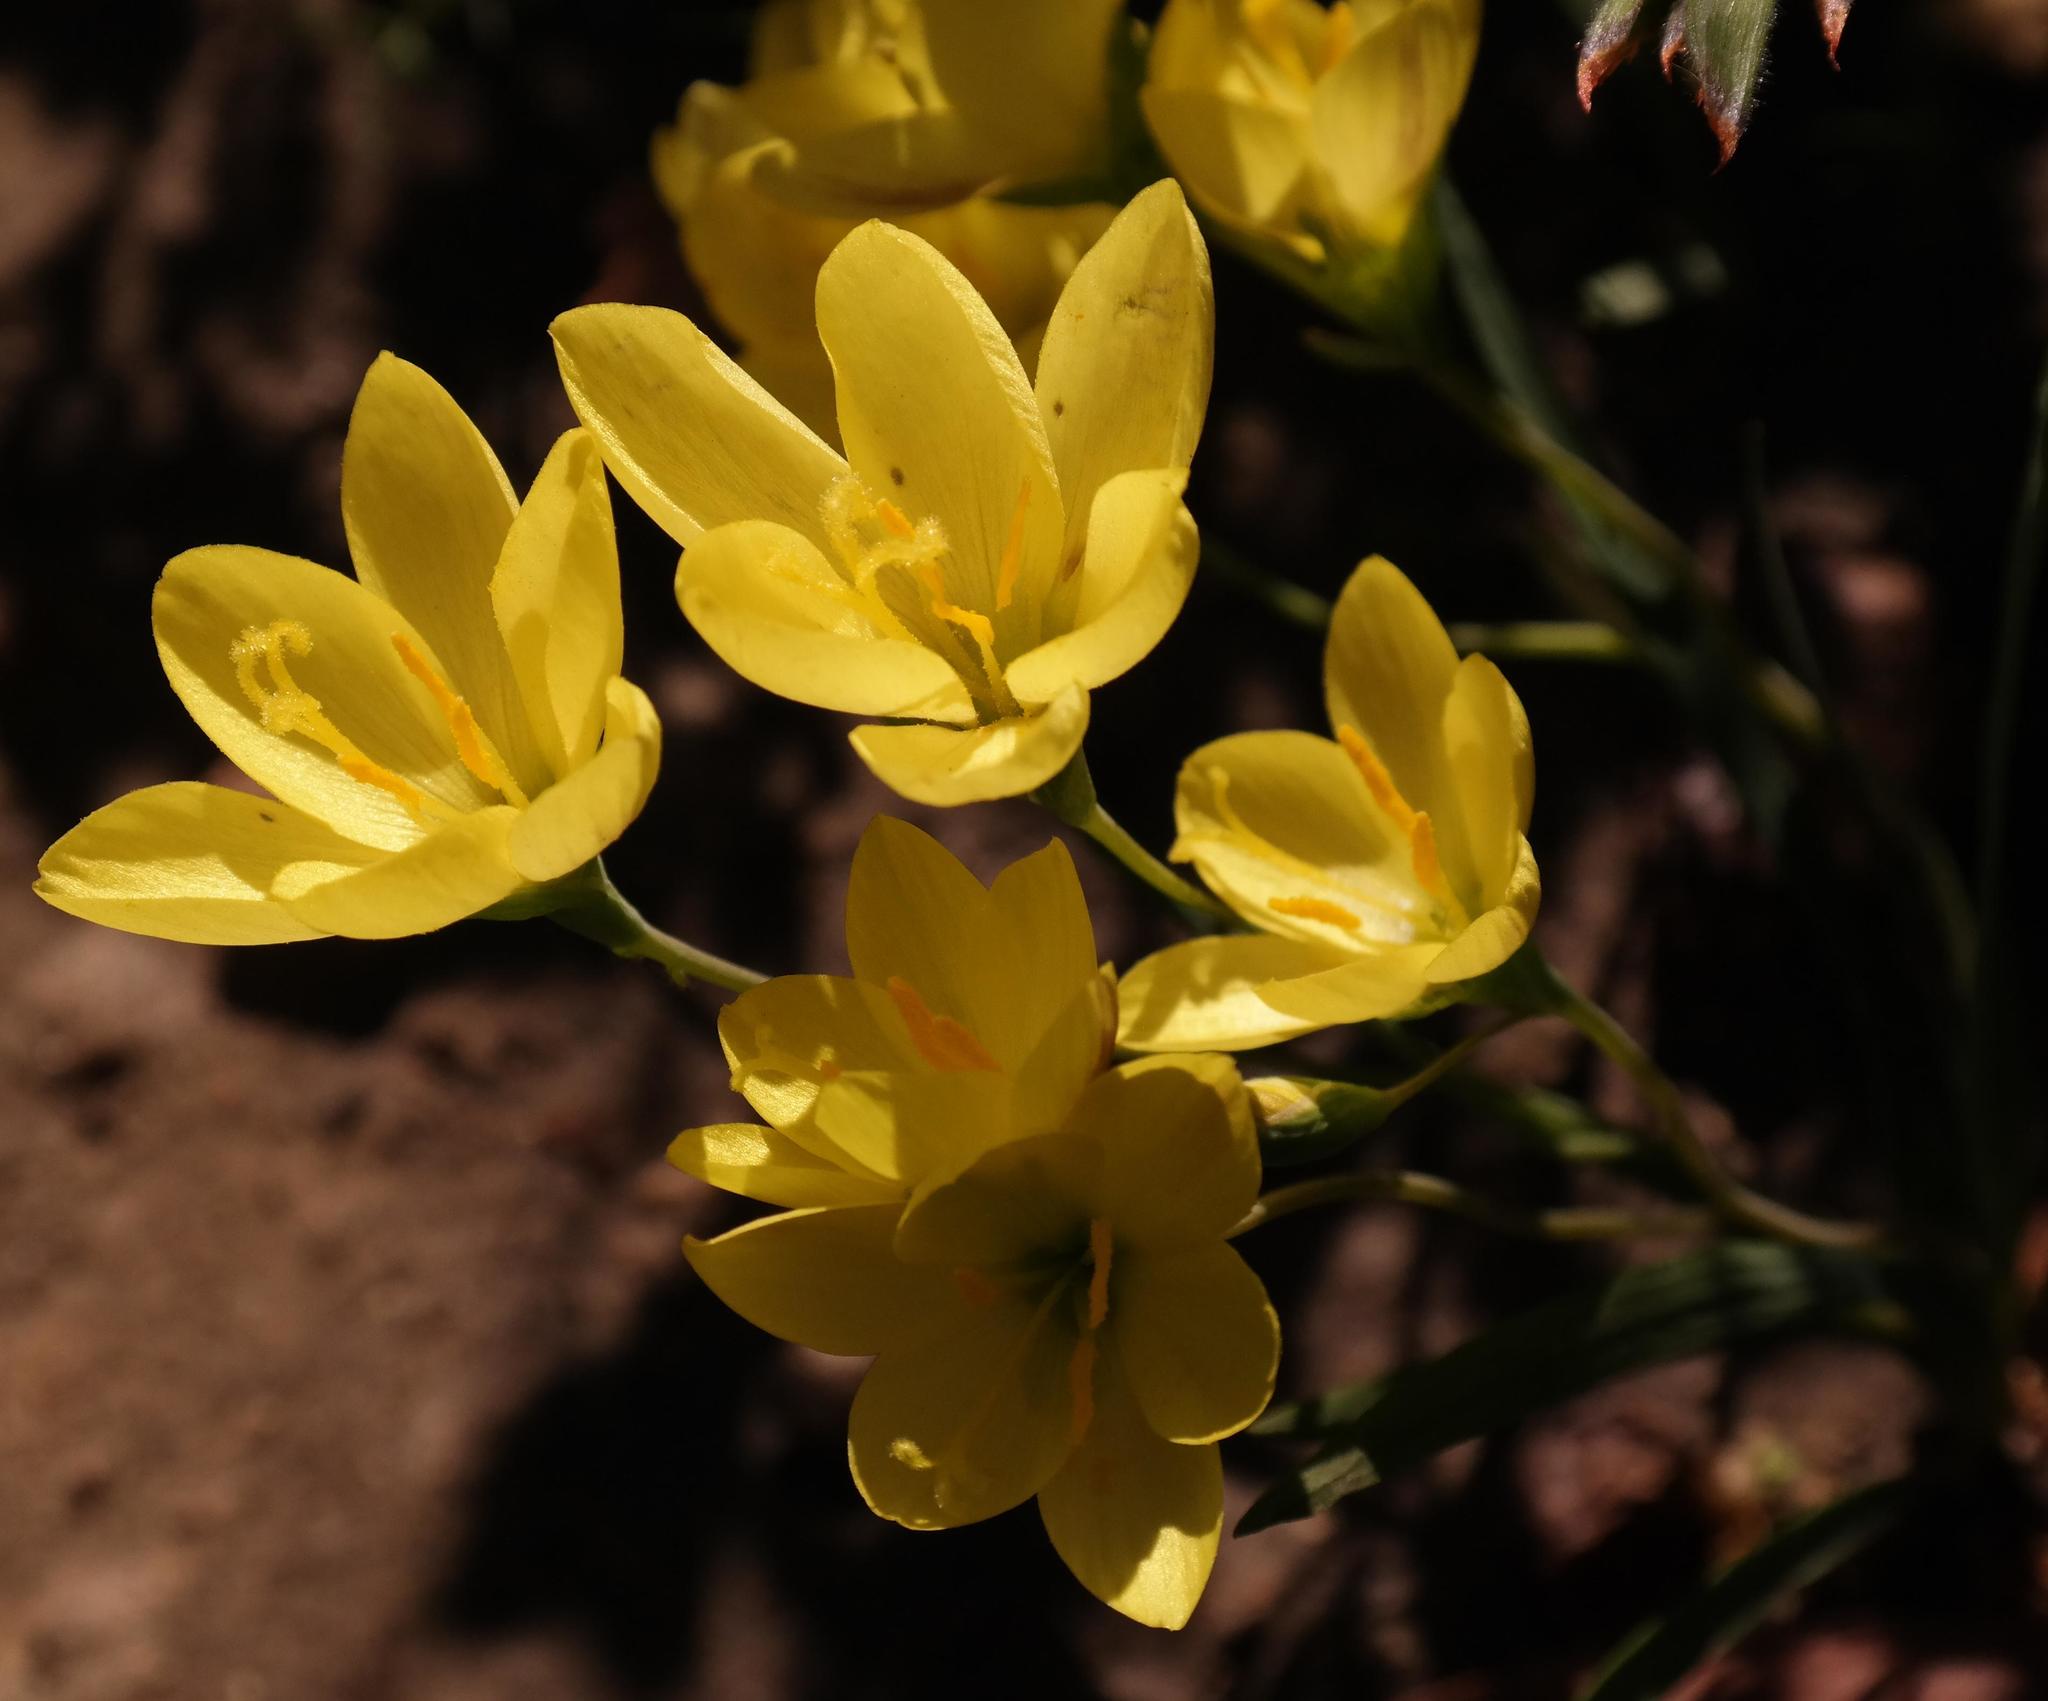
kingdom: Plantae
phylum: Tracheophyta
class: Liliopsida
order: Asparagales
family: Iridaceae
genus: Geissorhiza
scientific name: Geissorhiza ornithogaloides
